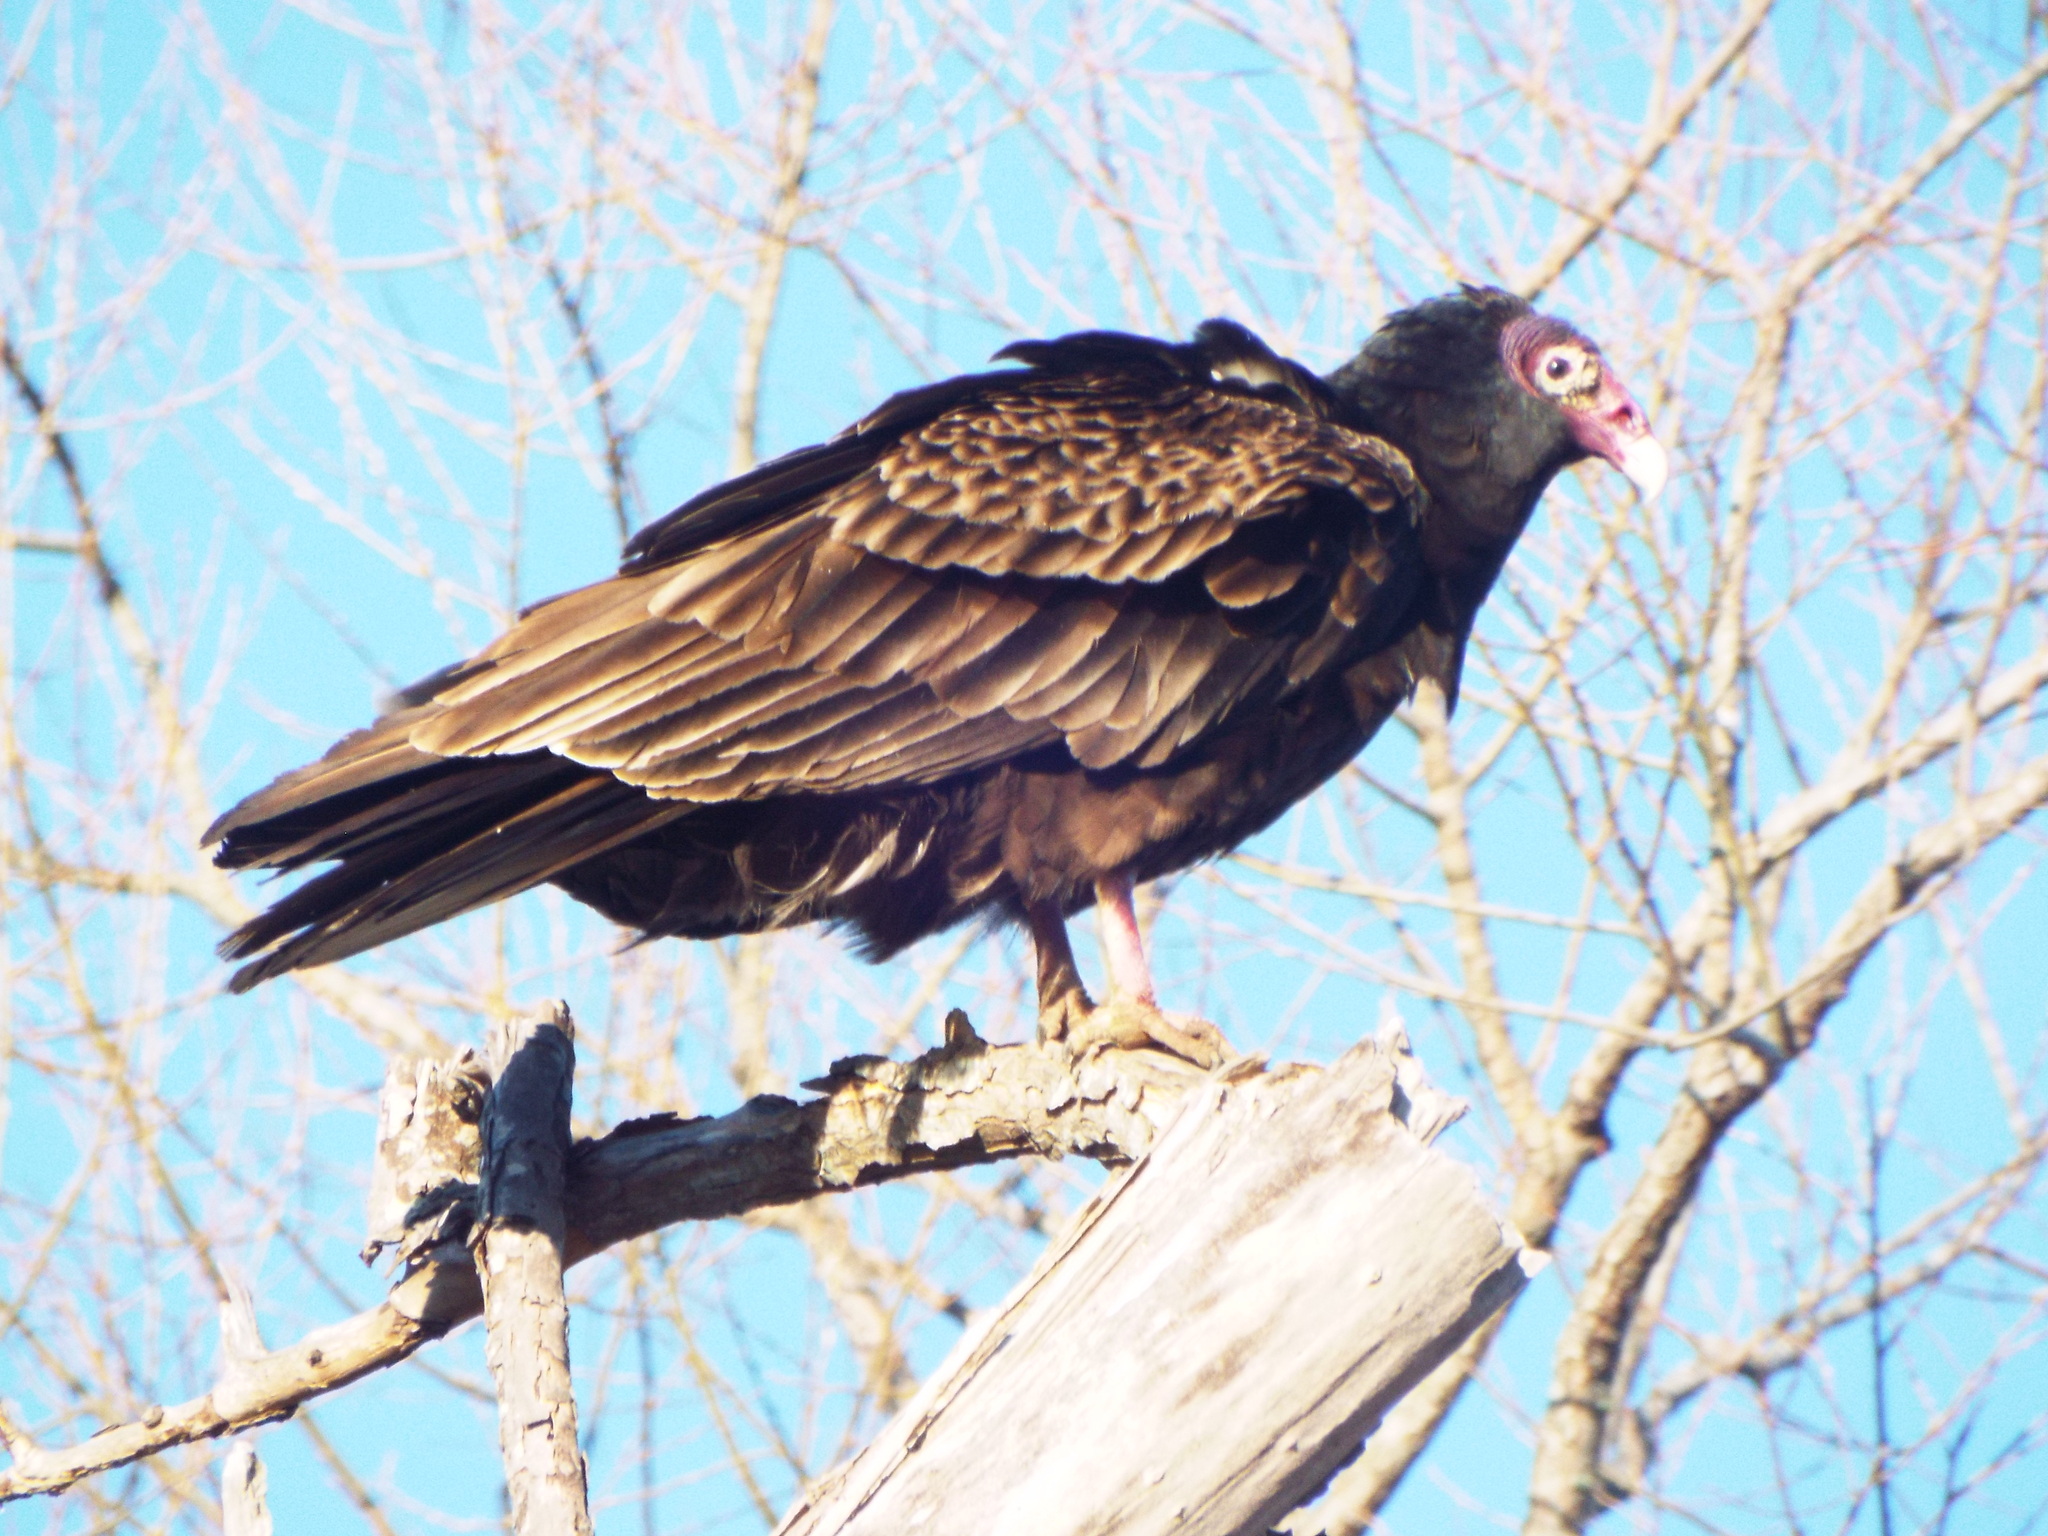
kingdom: Animalia
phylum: Chordata
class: Aves
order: Accipitriformes
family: Cathartidae
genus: Cathartes
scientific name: Cathartes aura
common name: Turkey vulture
